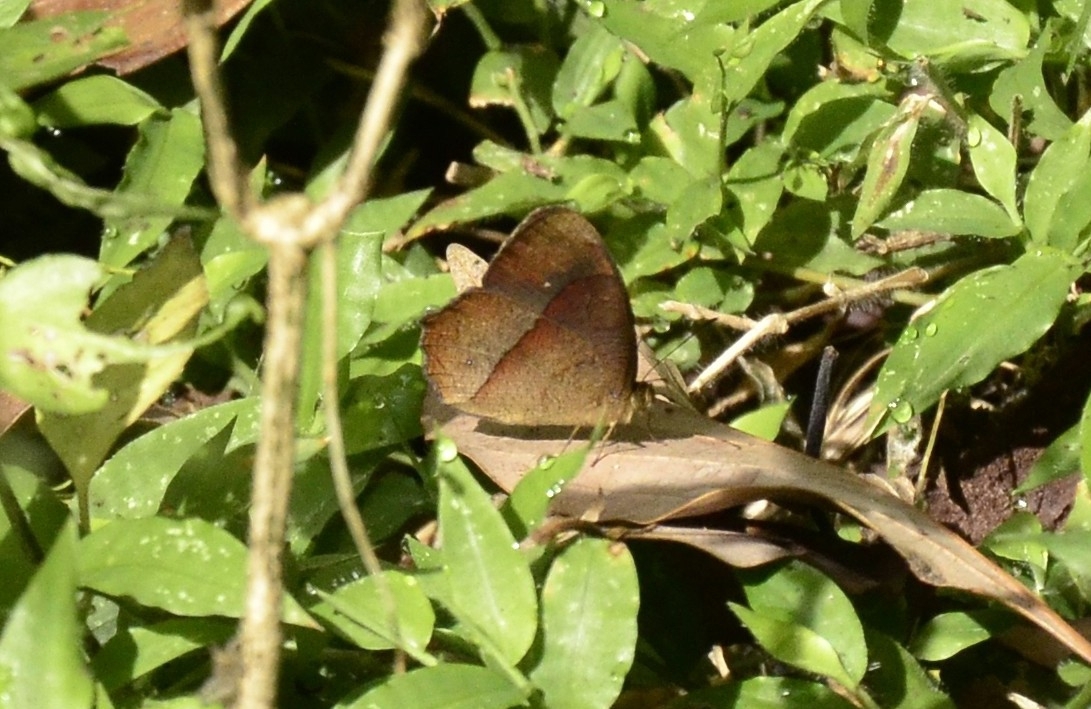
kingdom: Animalia
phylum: Arthropoda
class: Insecta
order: Lepidoptera
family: Nymphalidae
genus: Mycalesis
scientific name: Mycalesis Telinga oculus
